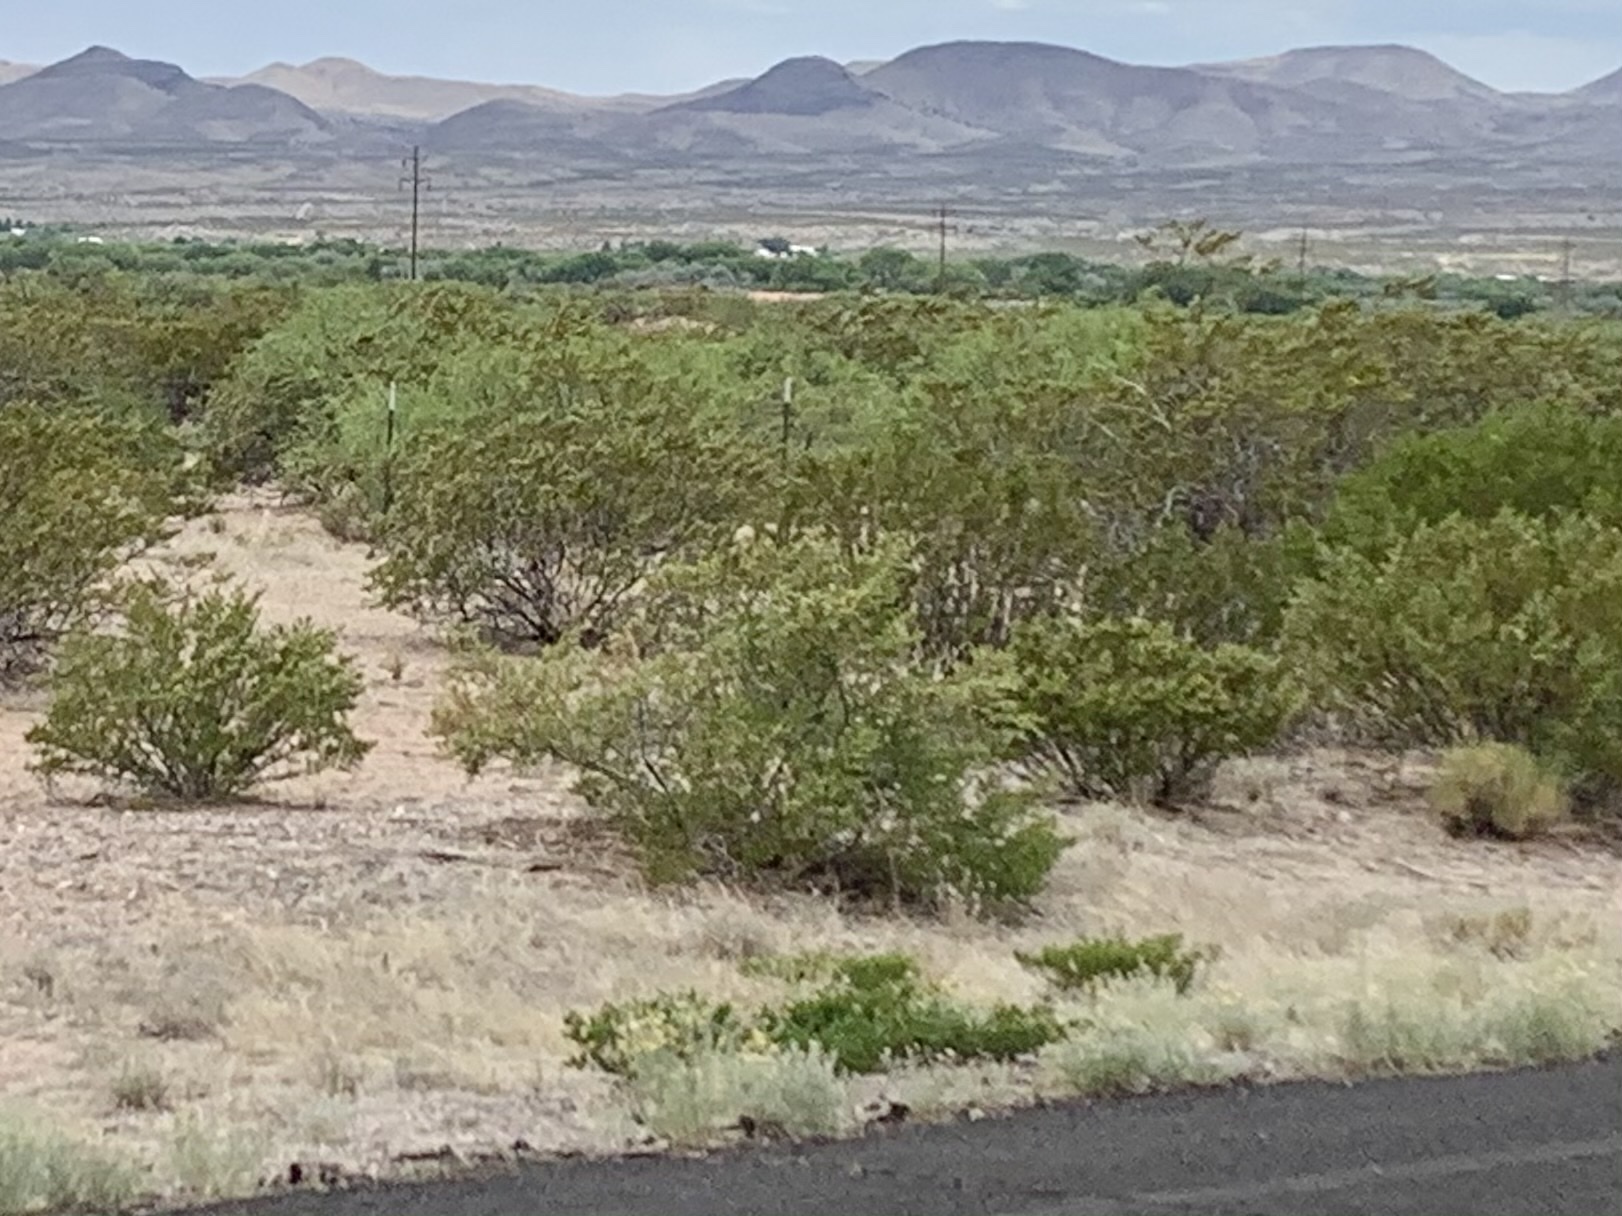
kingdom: Plantae
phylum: Tracheophyta
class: Magnoliopsida
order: Zygophyllales
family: Zygophyllaceae
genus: Larrea
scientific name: Larrea tridentata
